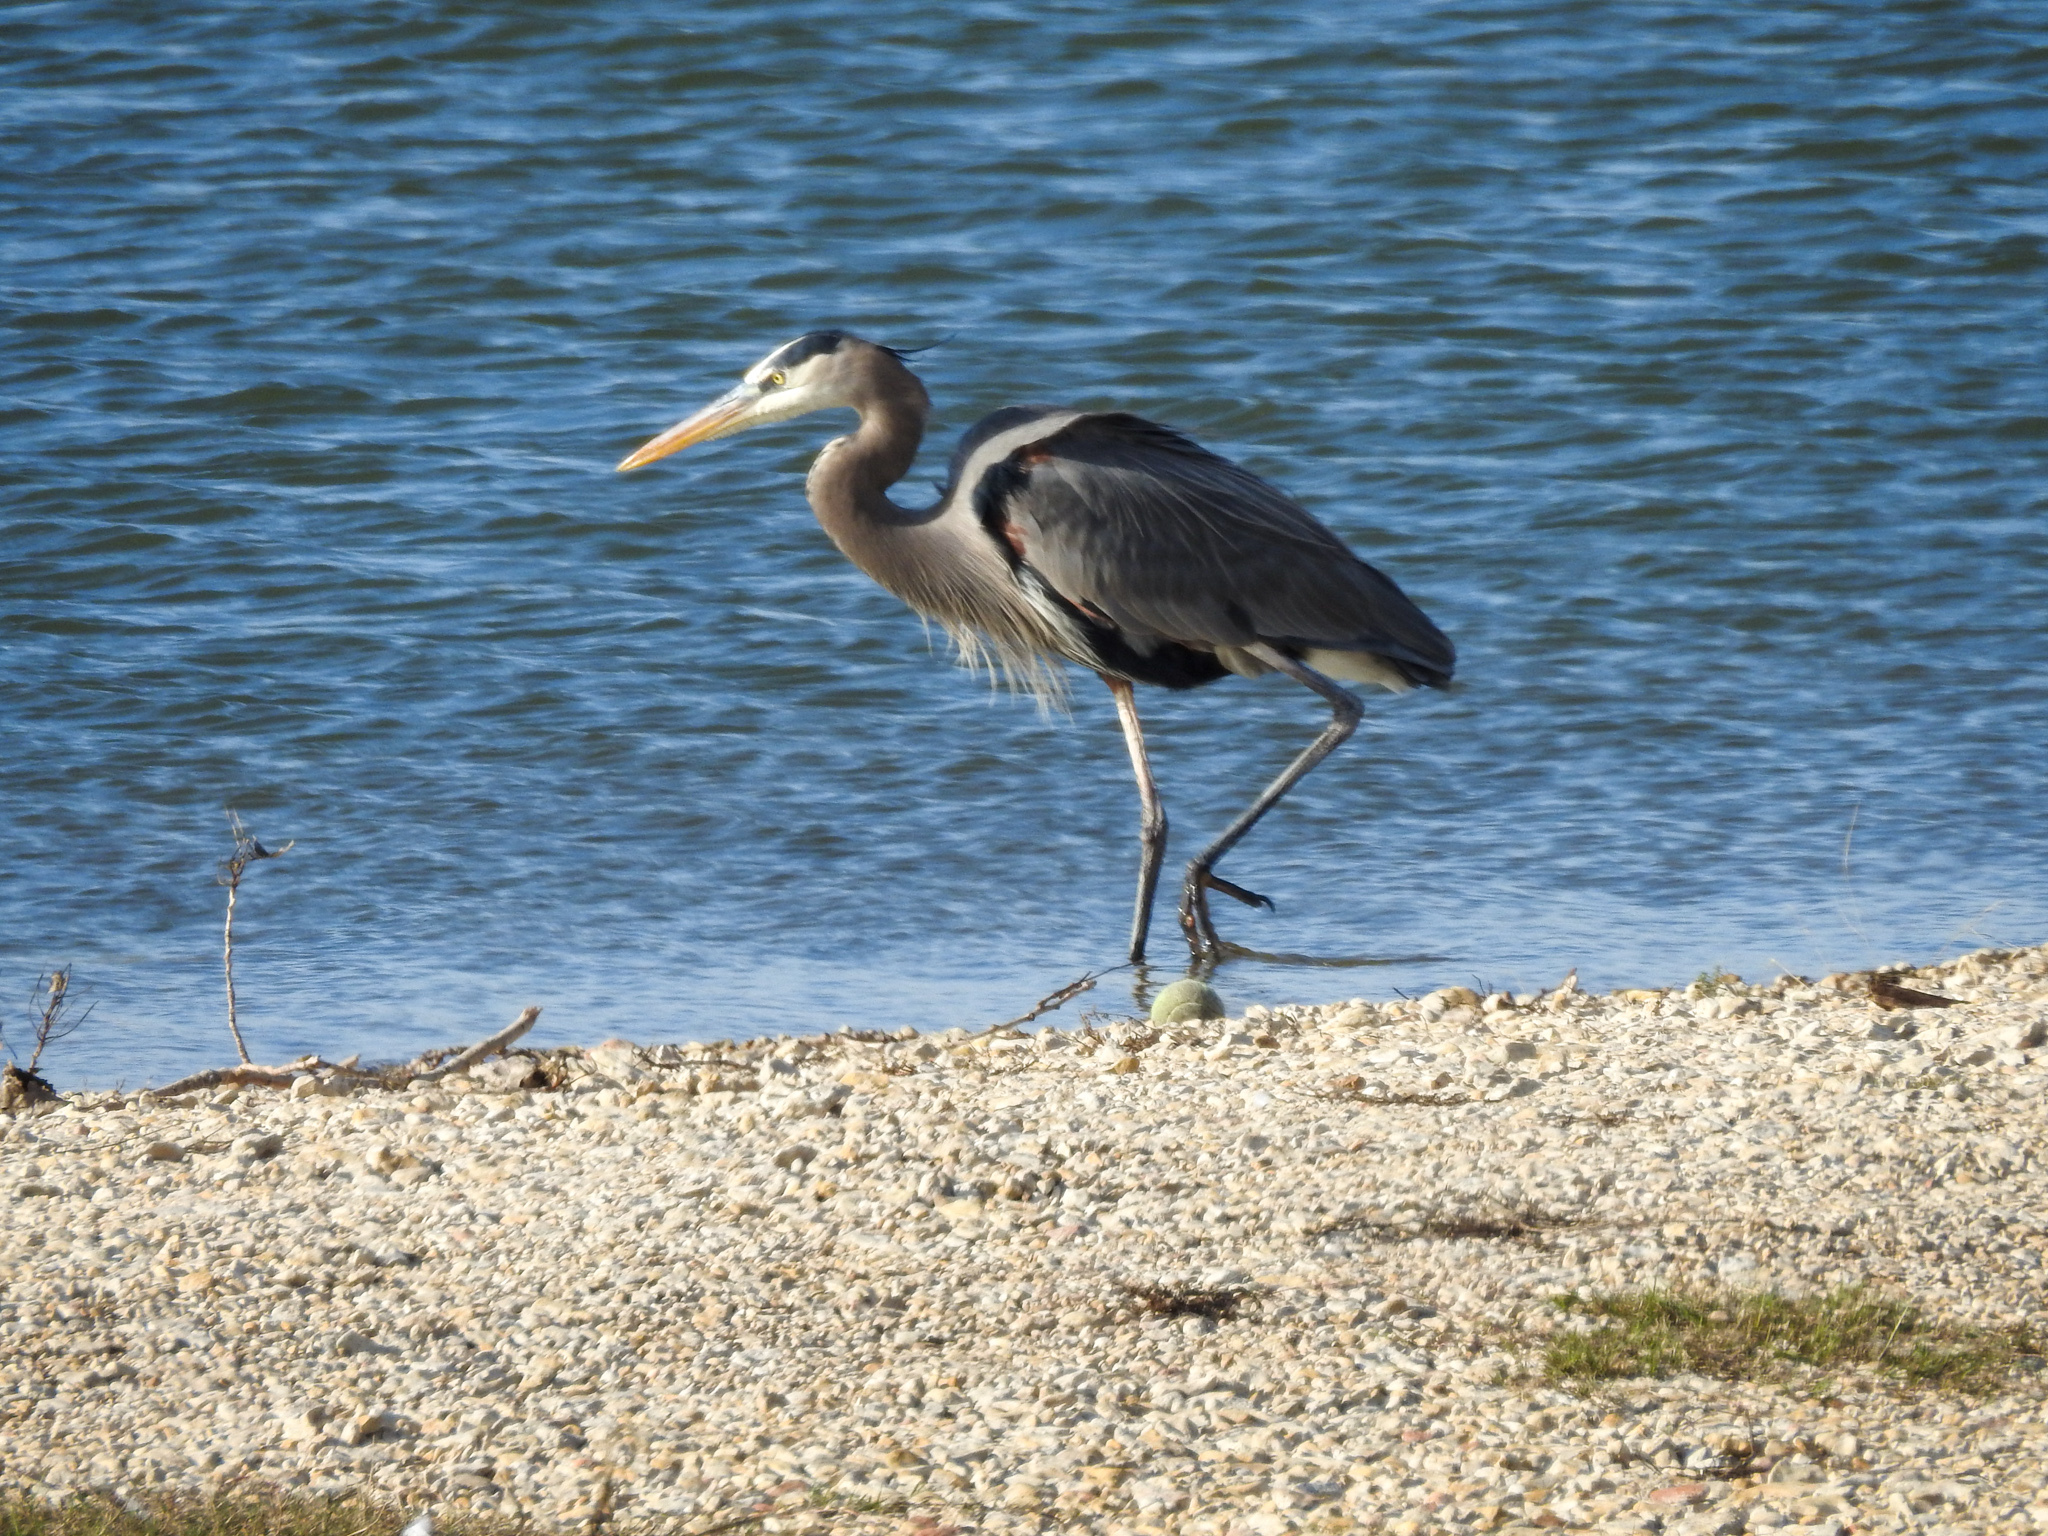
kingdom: Animalia
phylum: Chordata
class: Aves
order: Pelecaniformes
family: Ardeidae
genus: Ardea
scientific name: Ardea herodias
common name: Great blue heron
